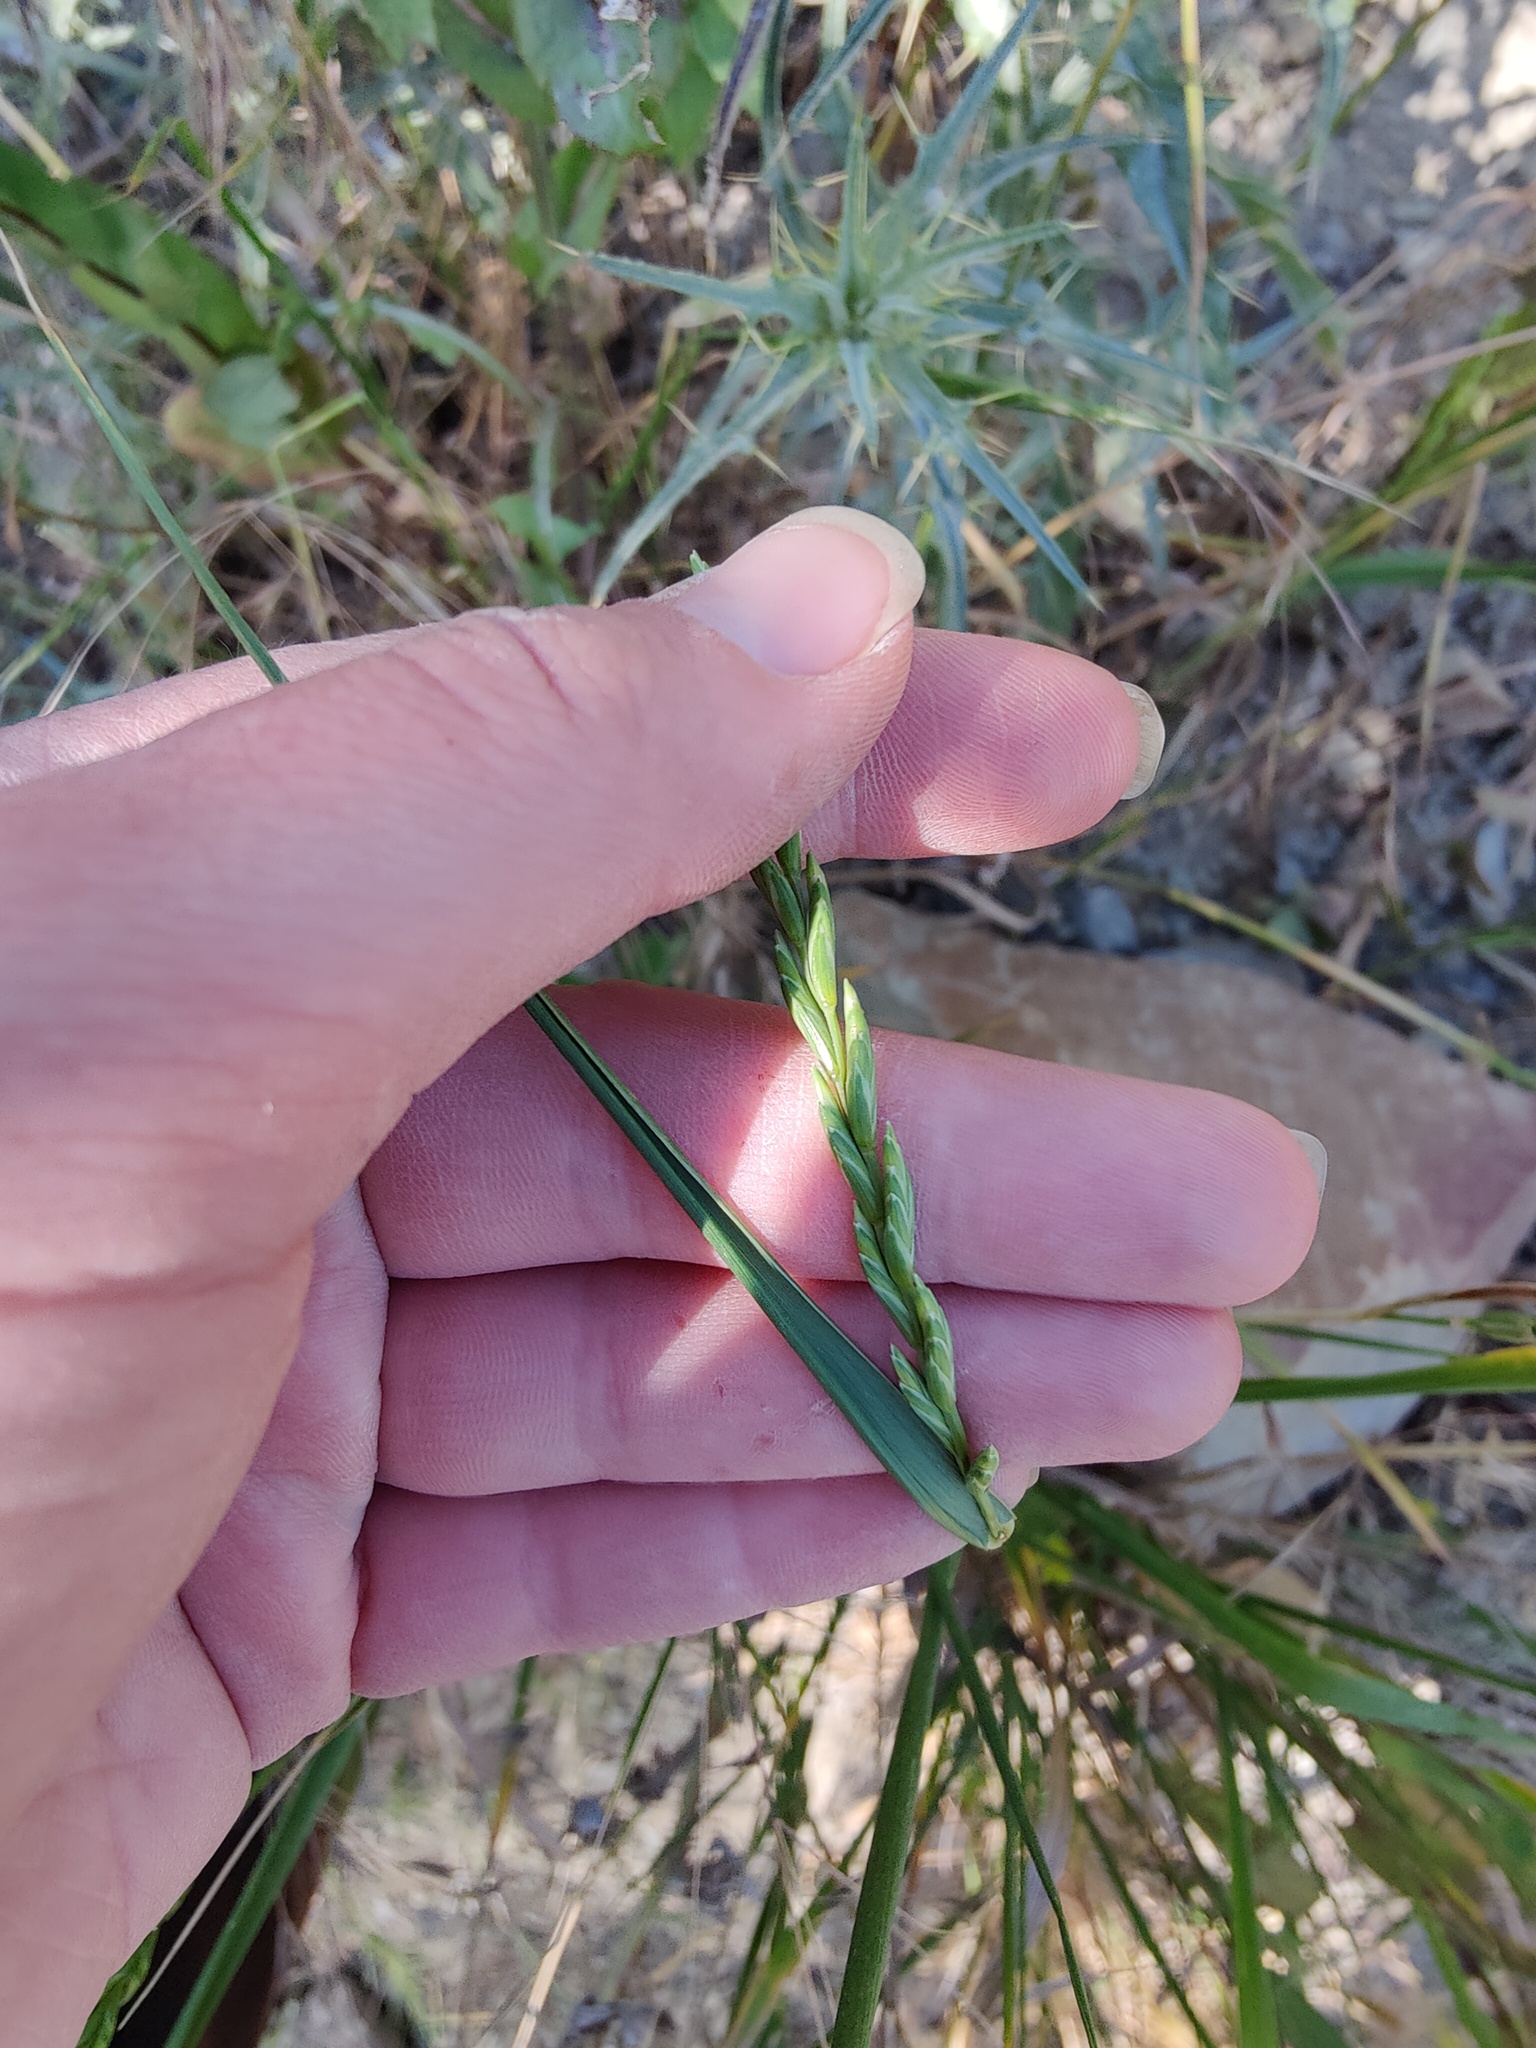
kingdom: Plantae
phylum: Tracheophyta
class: Liliopsida
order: Poales
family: Poaceae
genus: Elymus
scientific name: Elymus repens
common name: Quackgrass
